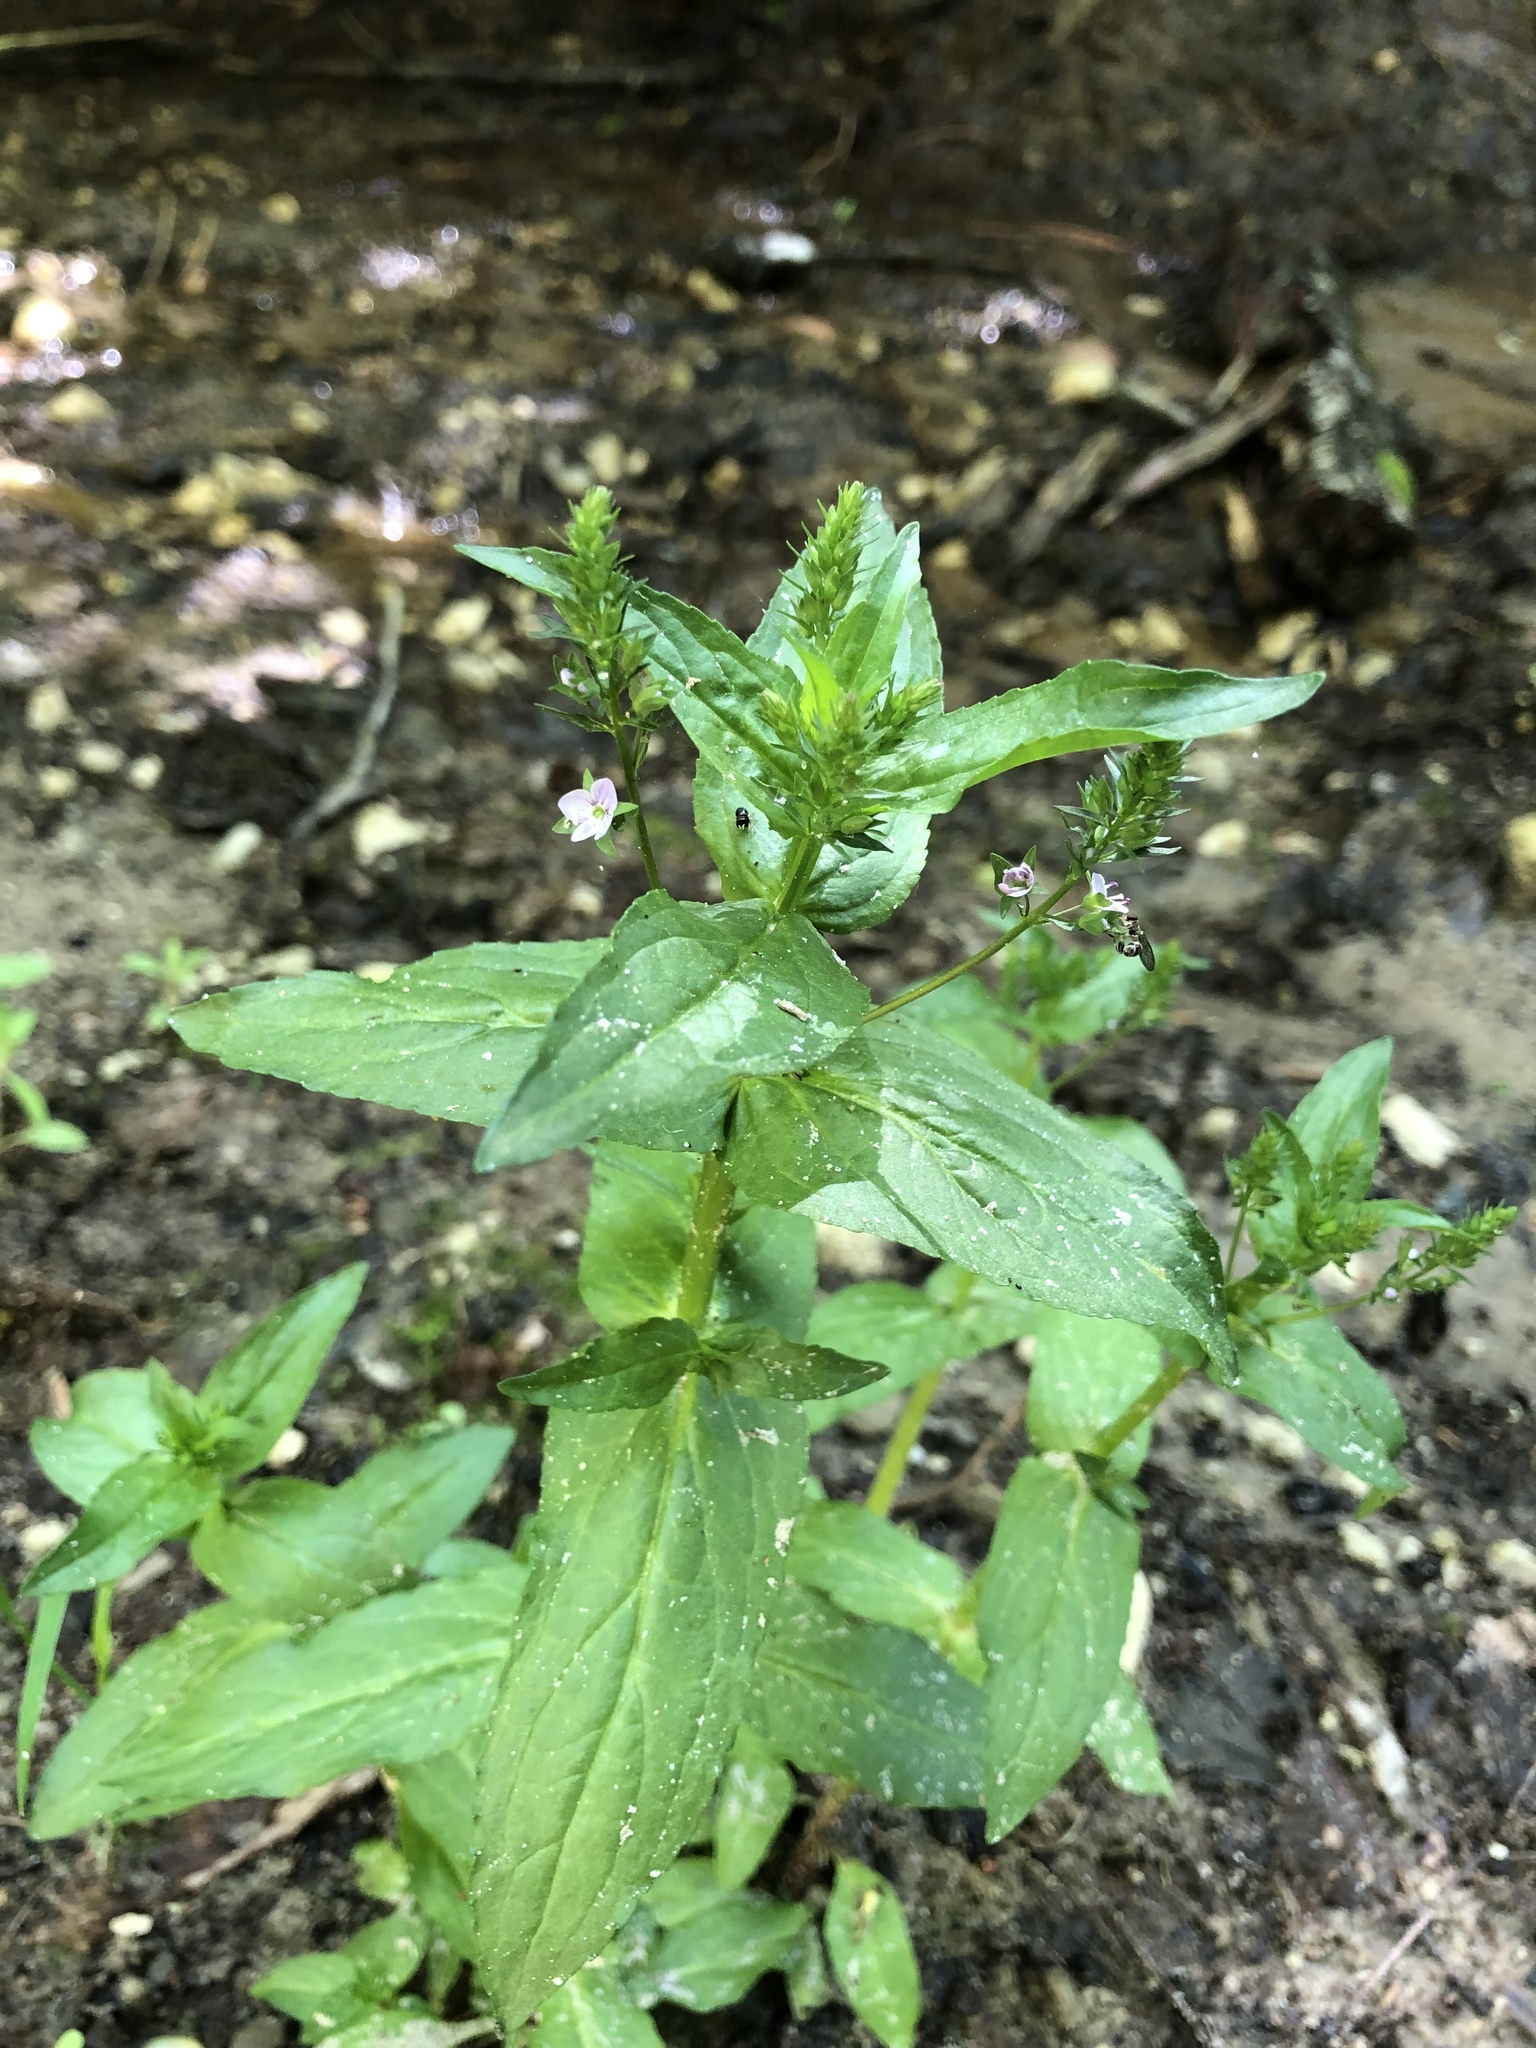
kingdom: Plantae
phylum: Tracheophyta
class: Magnoliopsida
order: Lamiales
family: Plantaginaceae
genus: Veronica
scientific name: Veronica anagallis-aquatica
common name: Water speedwell
